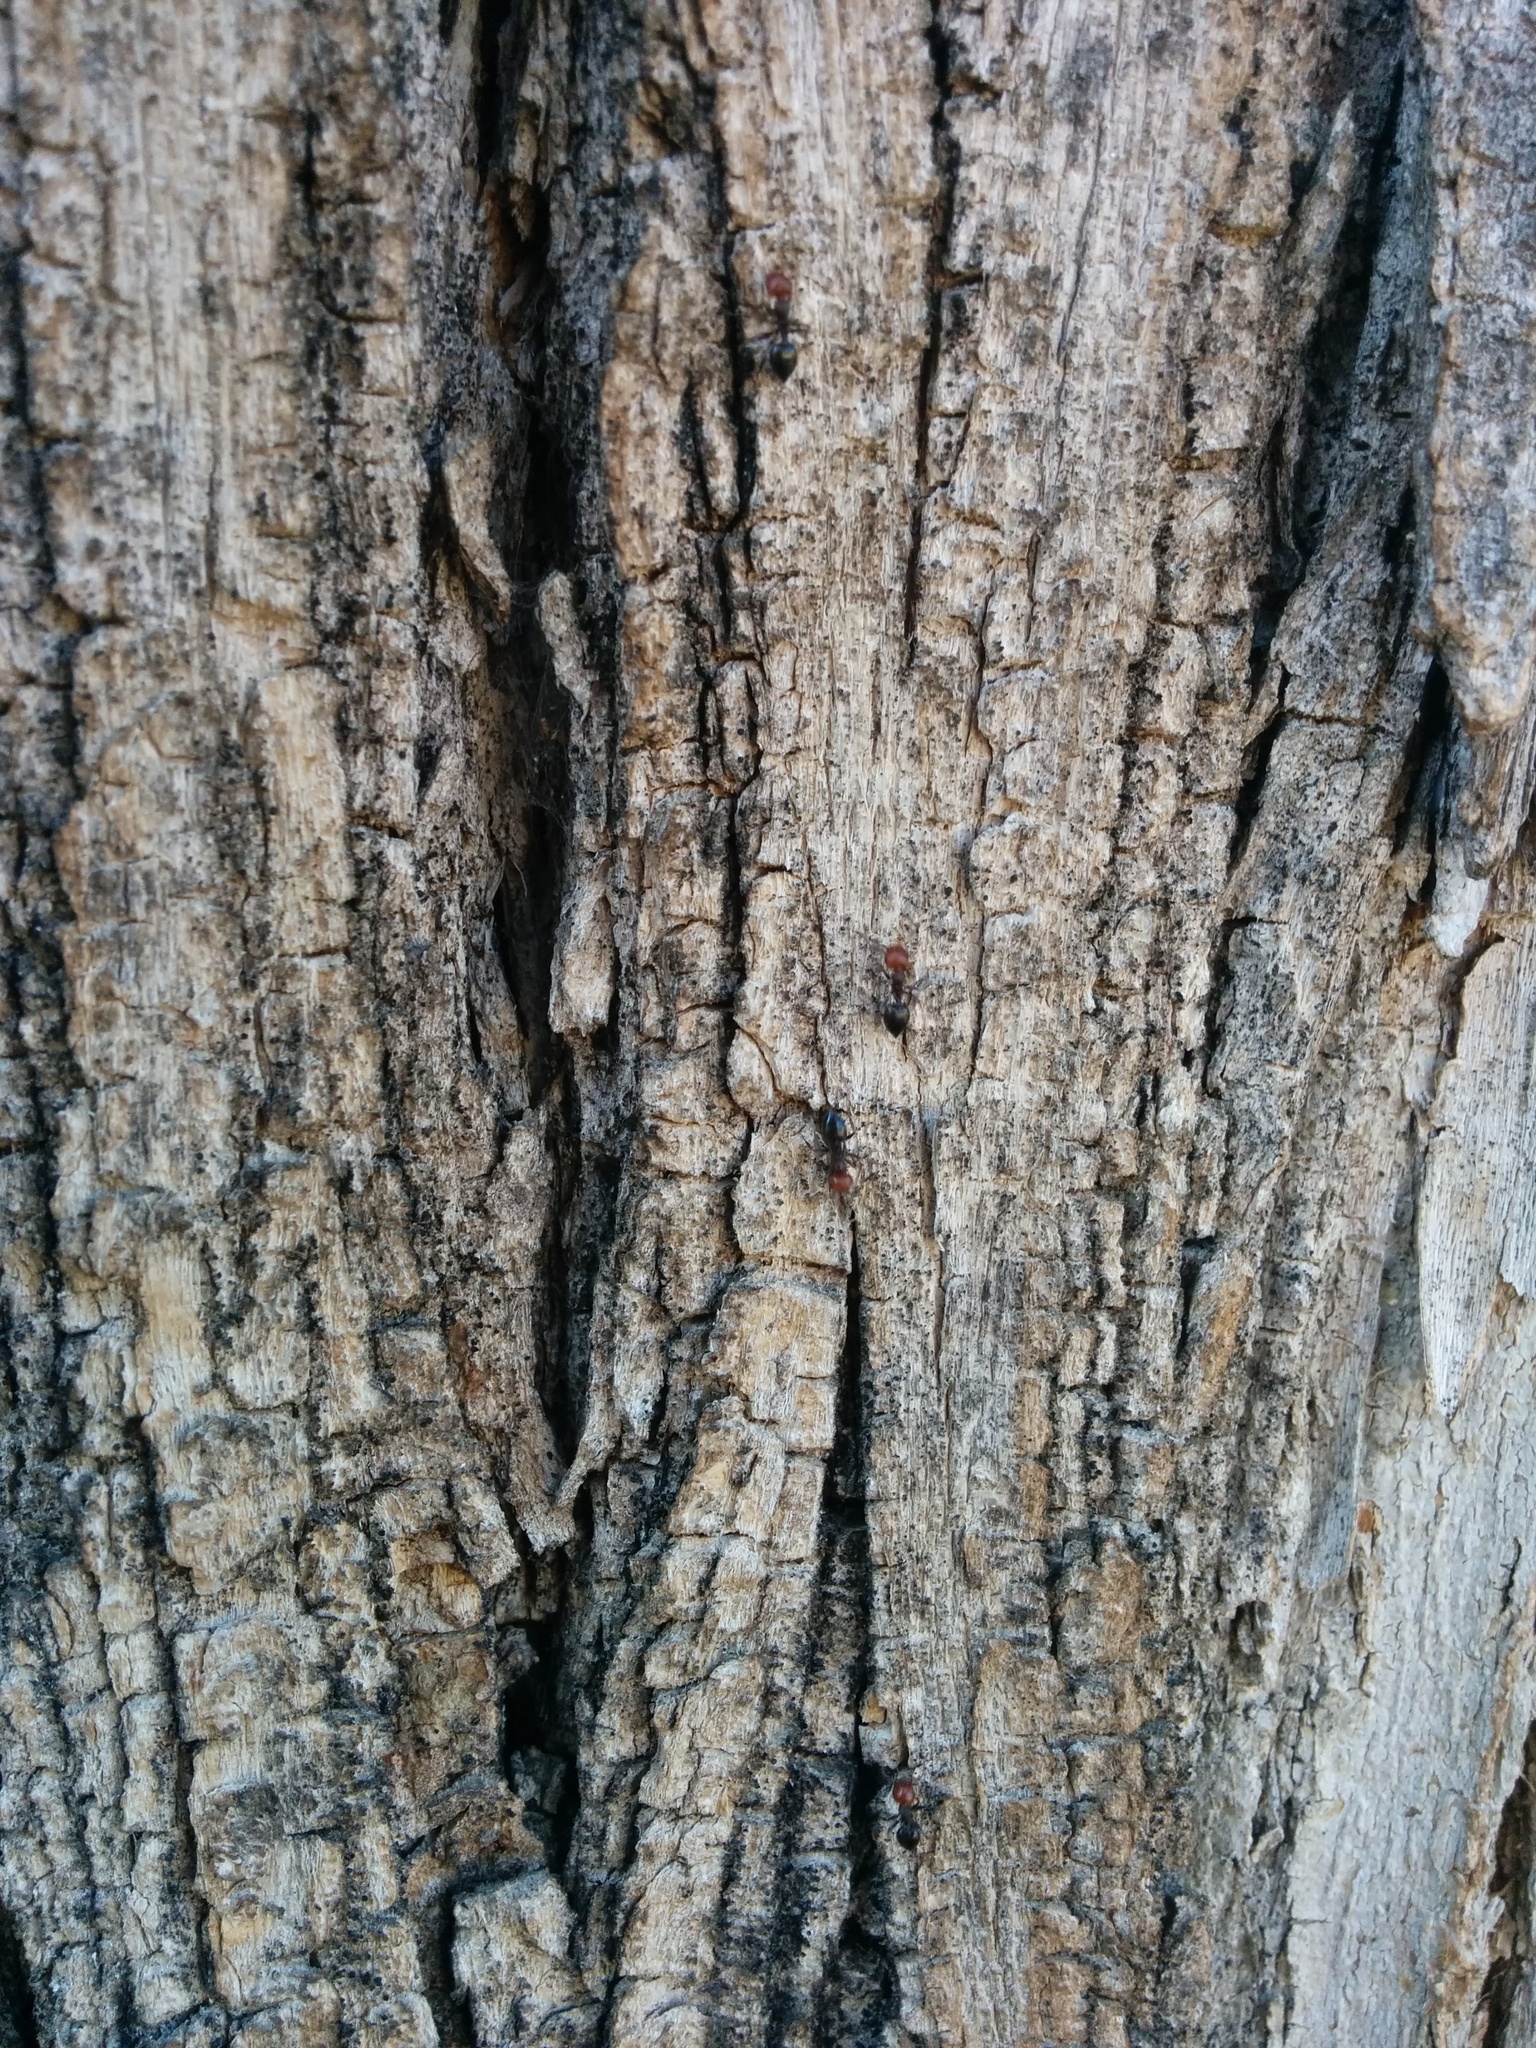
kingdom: Animalia
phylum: Arthropoda
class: Insecta
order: Hymenoptera
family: Formicidae
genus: Crematogaster
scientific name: Crematogaster scutellaris
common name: Fourmi du liège
